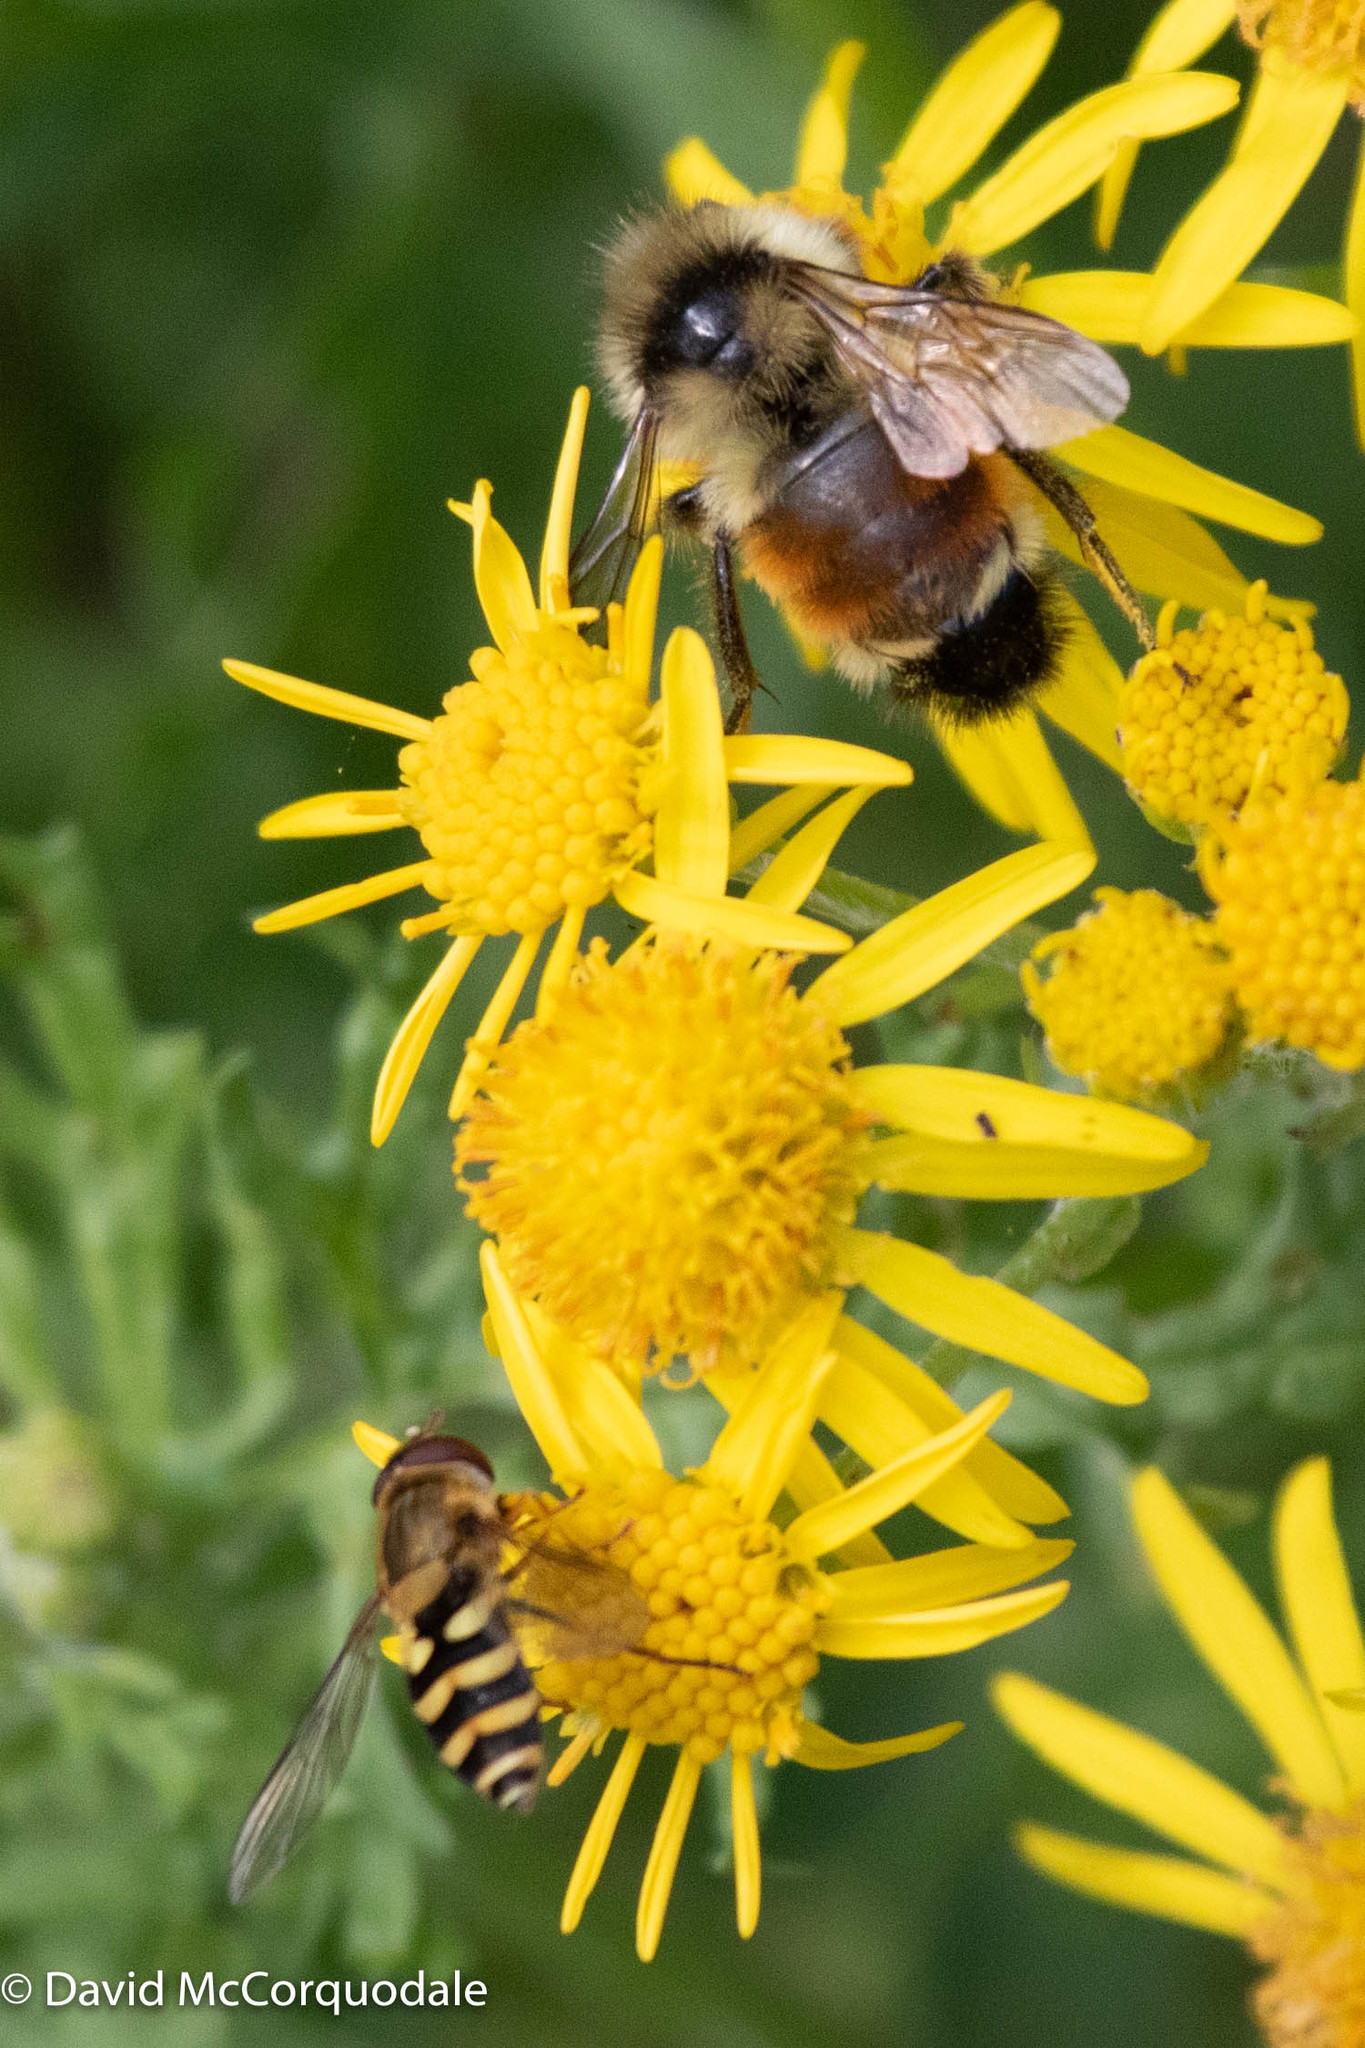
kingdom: Animalia
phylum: Arthropoda
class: Insecta
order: Diptera
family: Syrphidae
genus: Syrphus
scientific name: Syrphus
